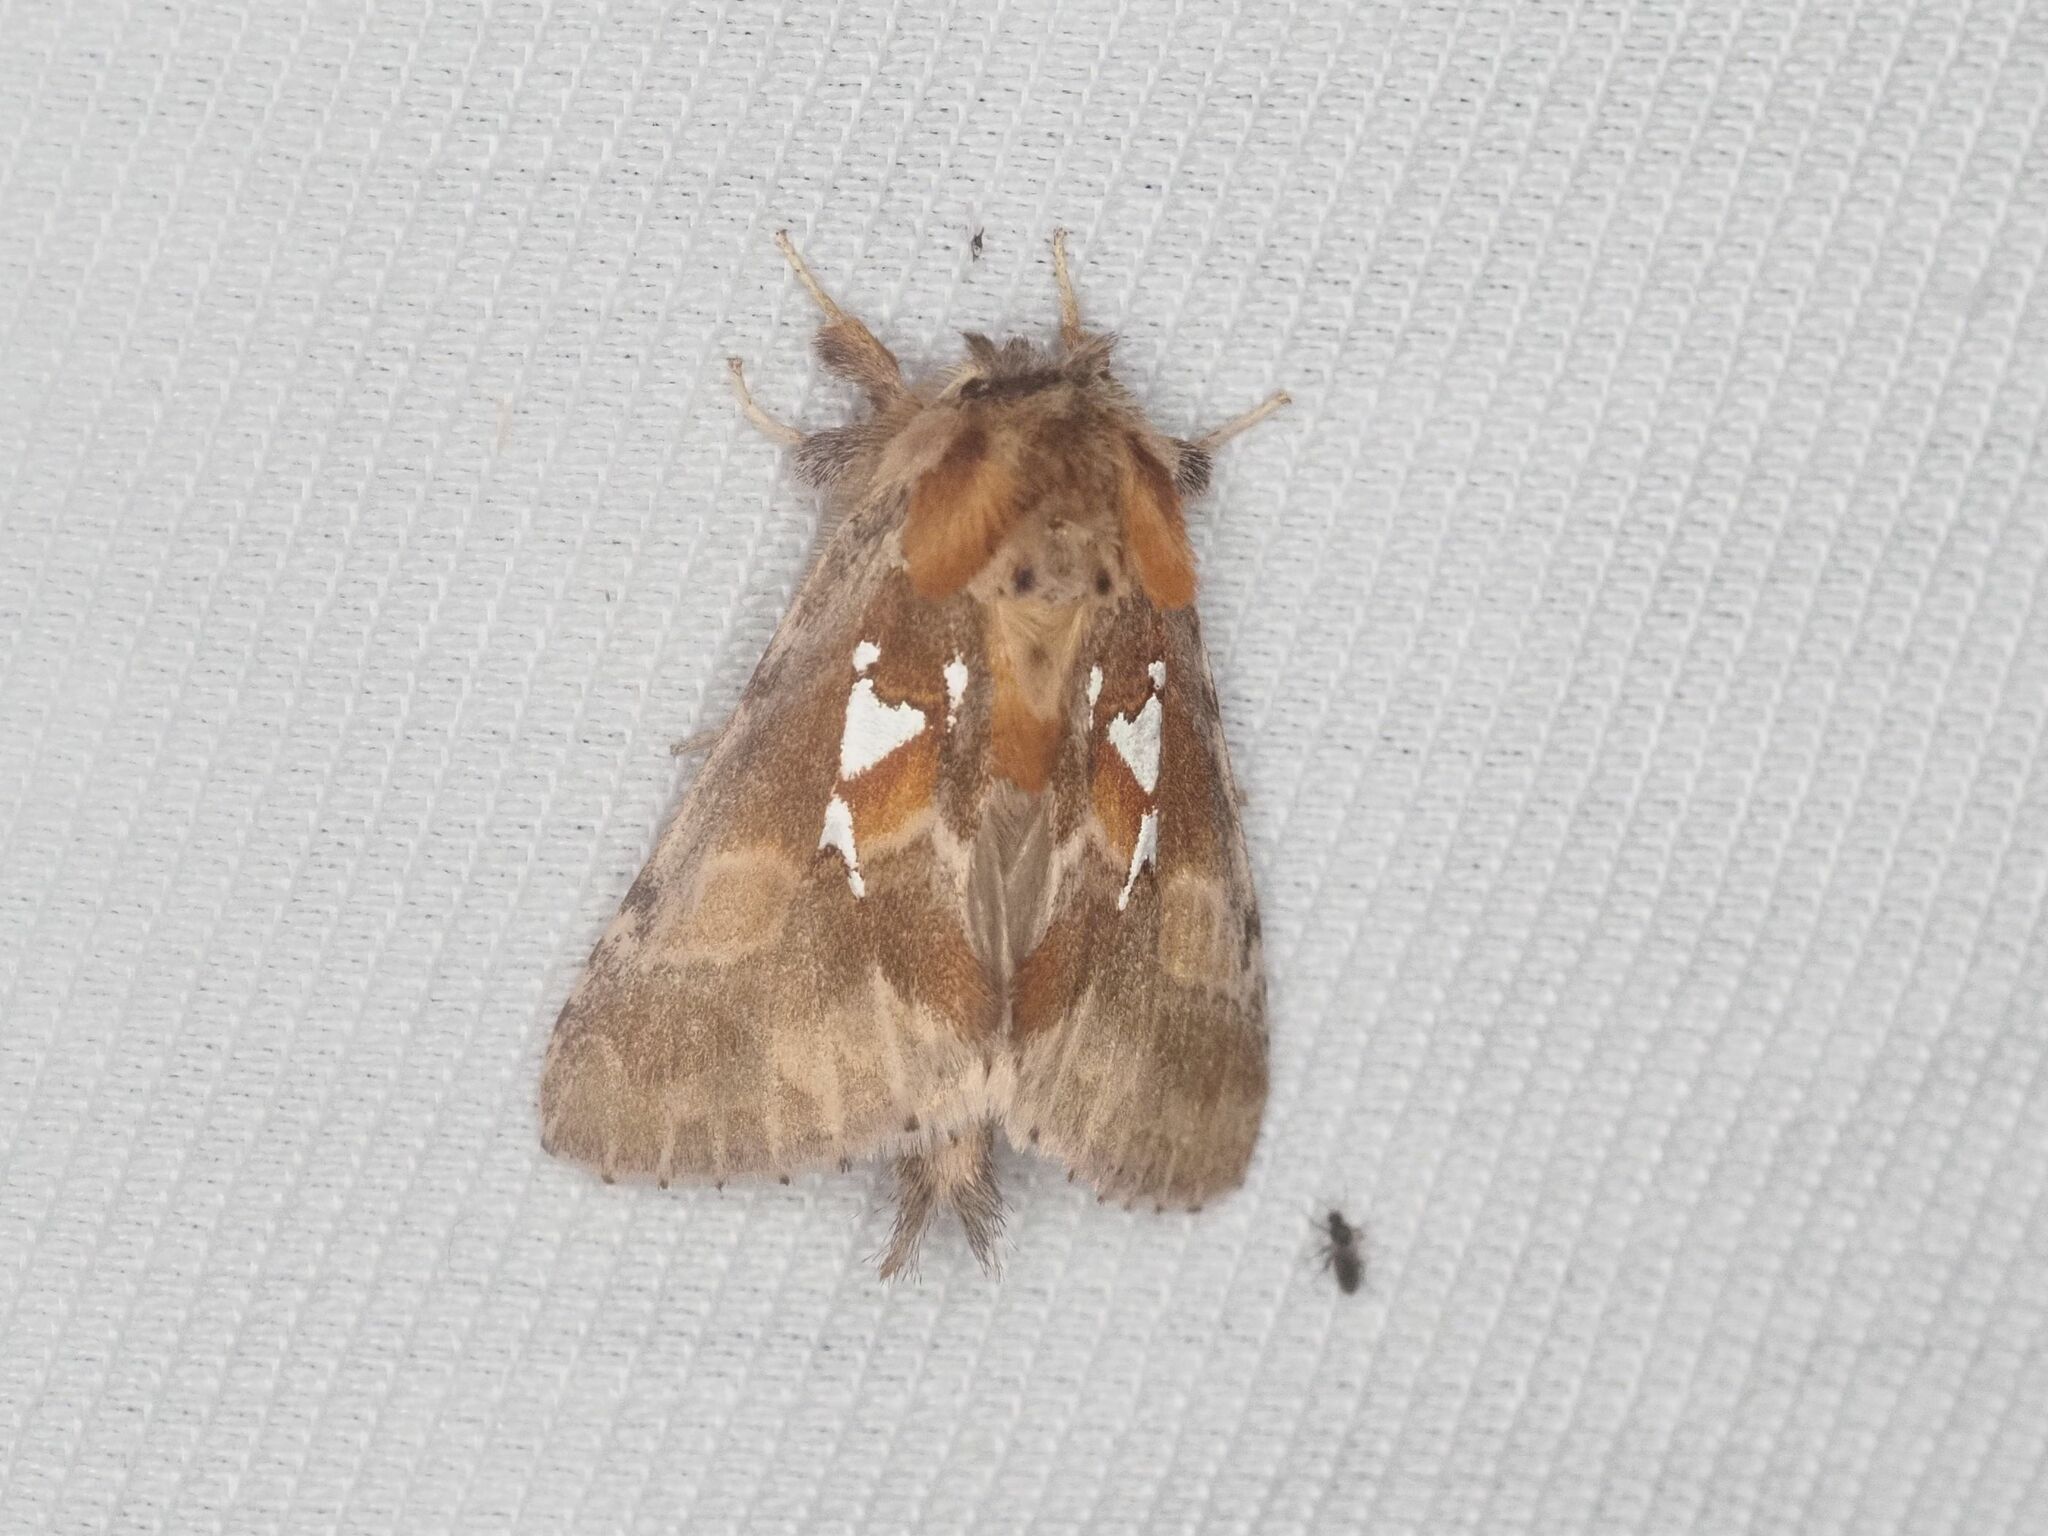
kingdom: Animalia
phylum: Arthropoda
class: Insecta
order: Lepidoptera
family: Notodontidae
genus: Spatalia
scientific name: Spatalia argentina
